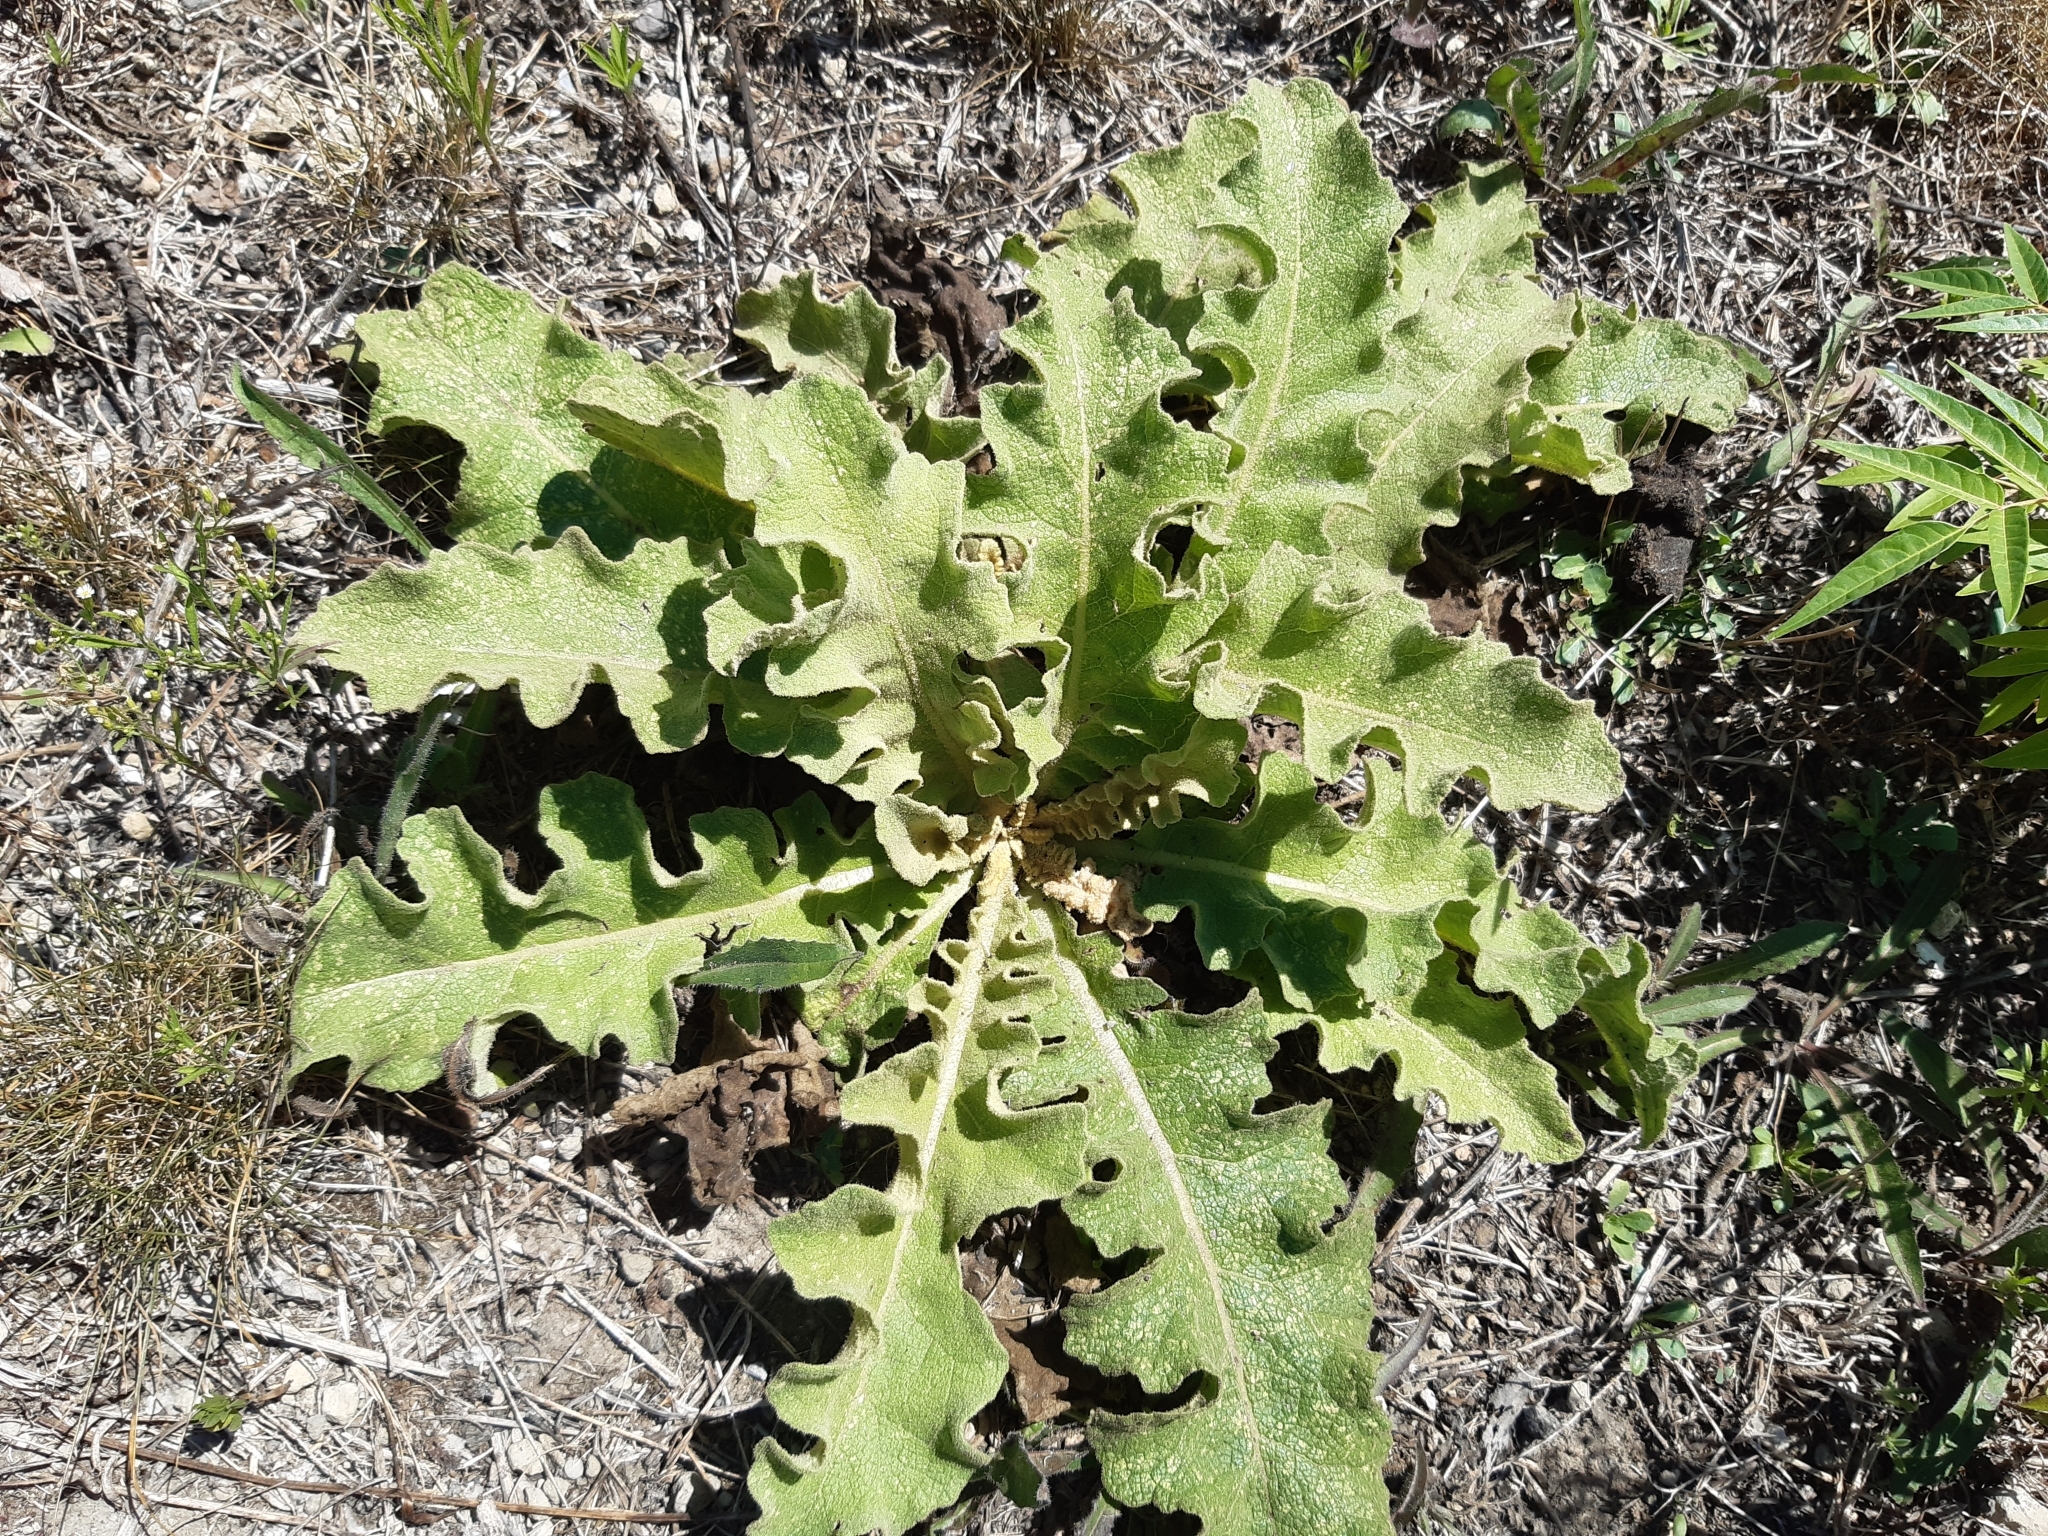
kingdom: Plantae
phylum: Tracheophyta
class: Magnoliopsida
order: Lamiales
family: Scrophulariaceae
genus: Verbascum
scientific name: Verbascum sinuatum
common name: Wavyleaf mullein
